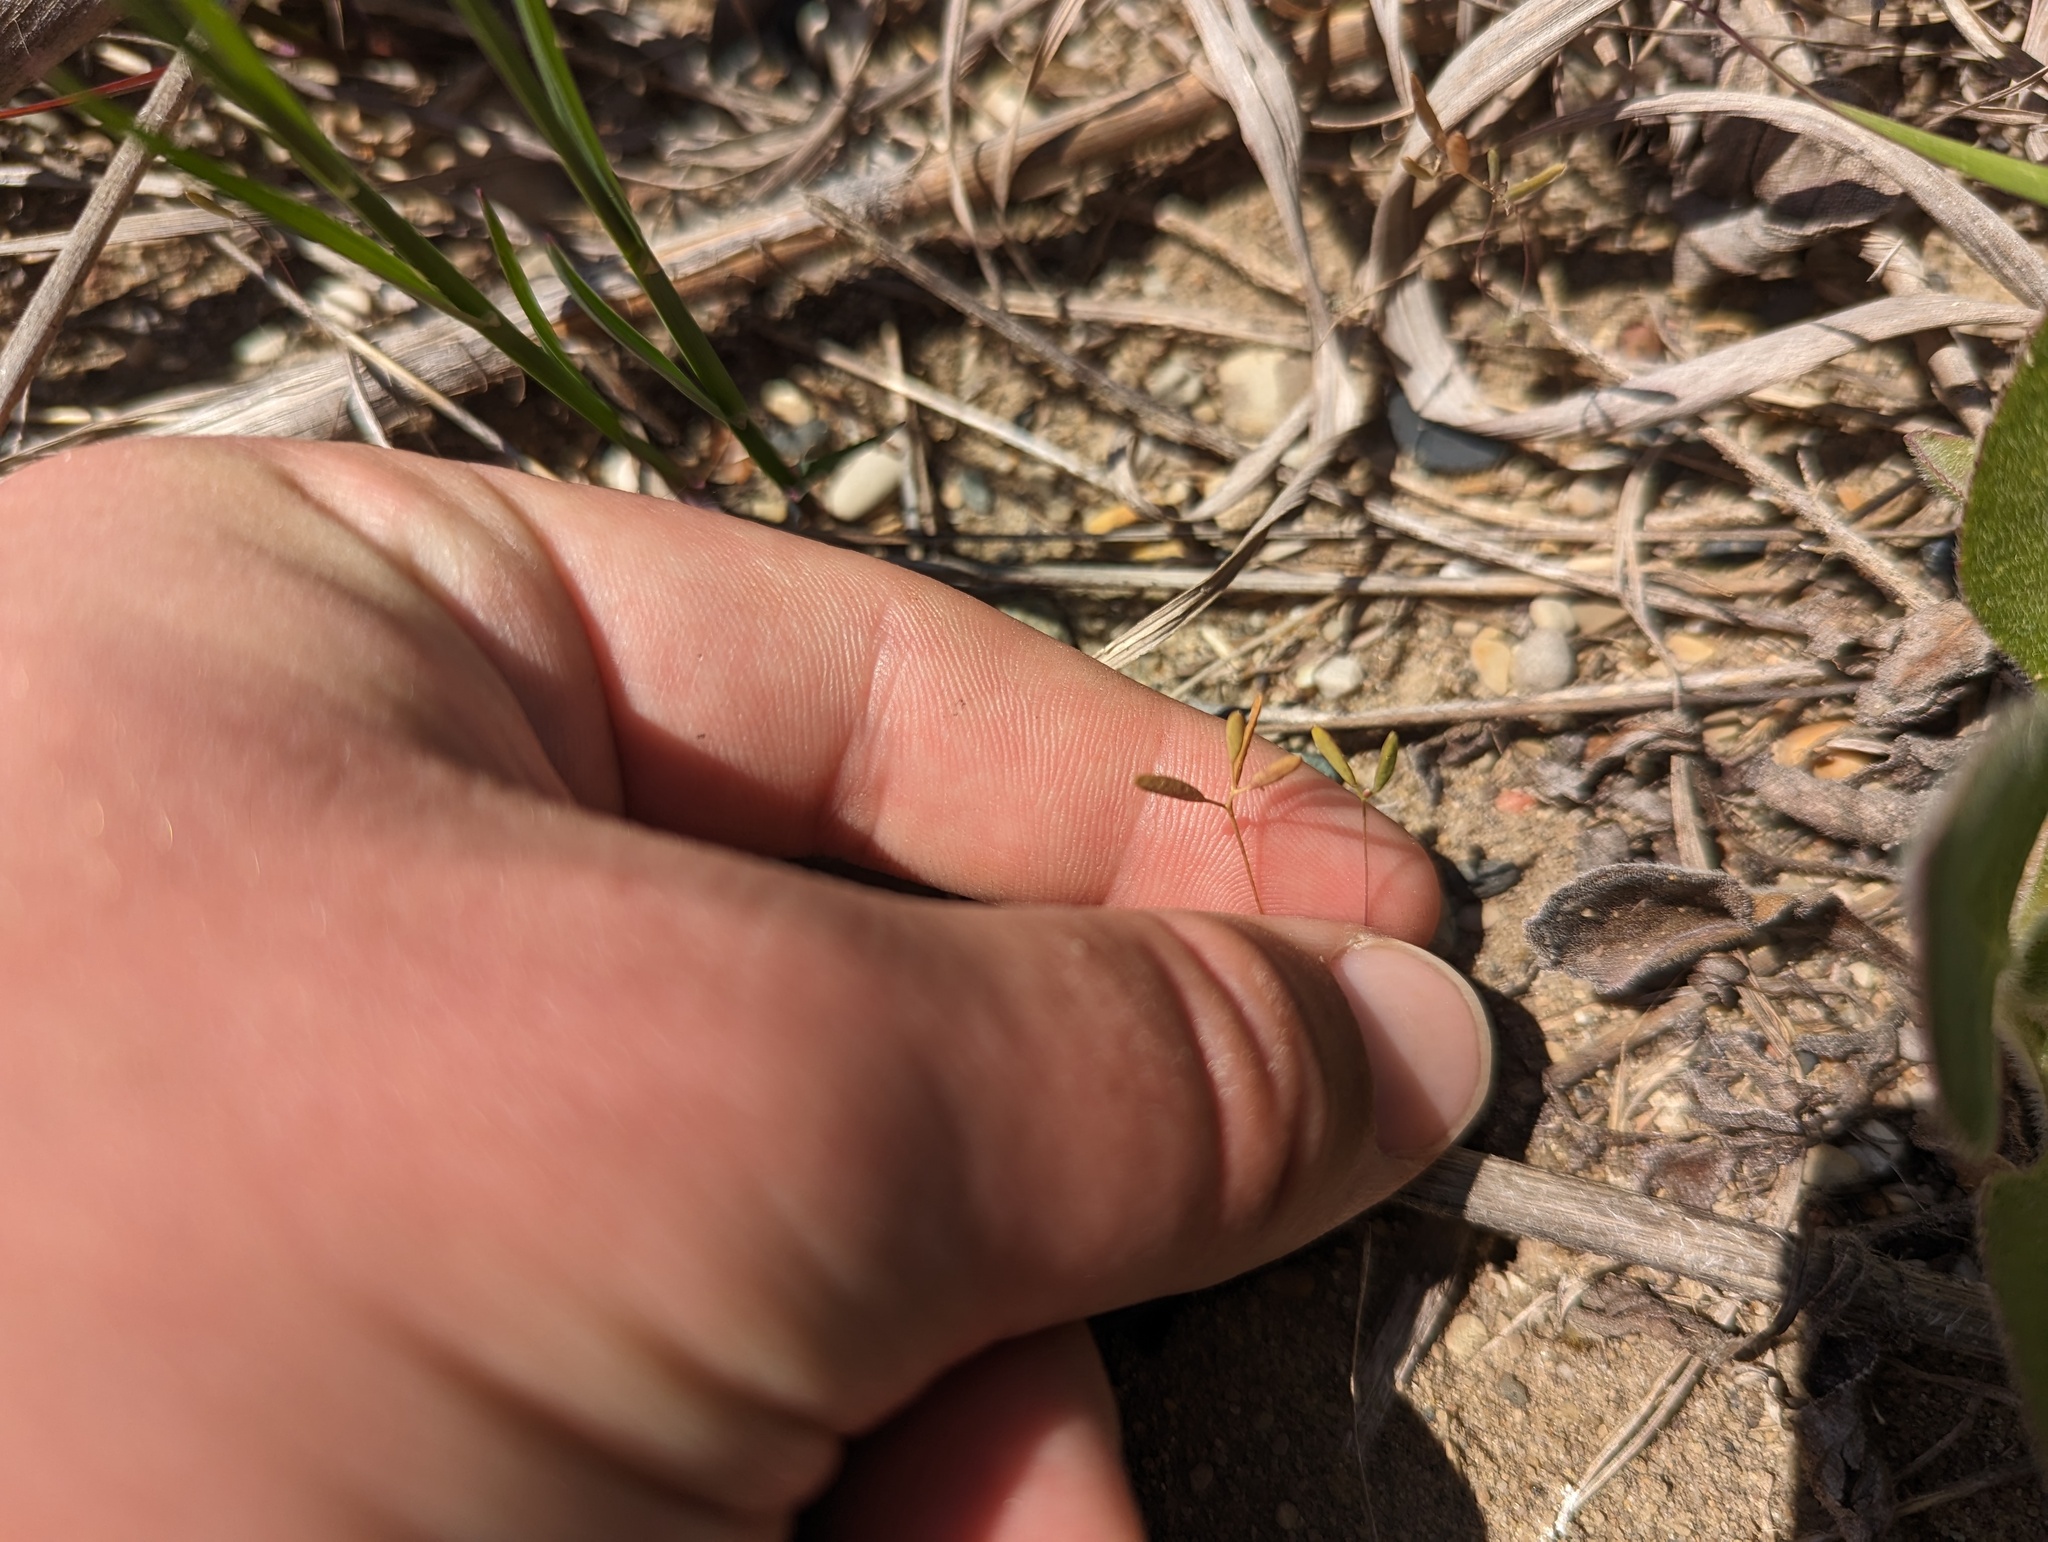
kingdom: Plantae
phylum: Tracheophyta
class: Magnoliopsida
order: Brassicales
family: Brassicaceae
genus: Tomostima
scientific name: Tomostima reptans
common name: Carolina draba
